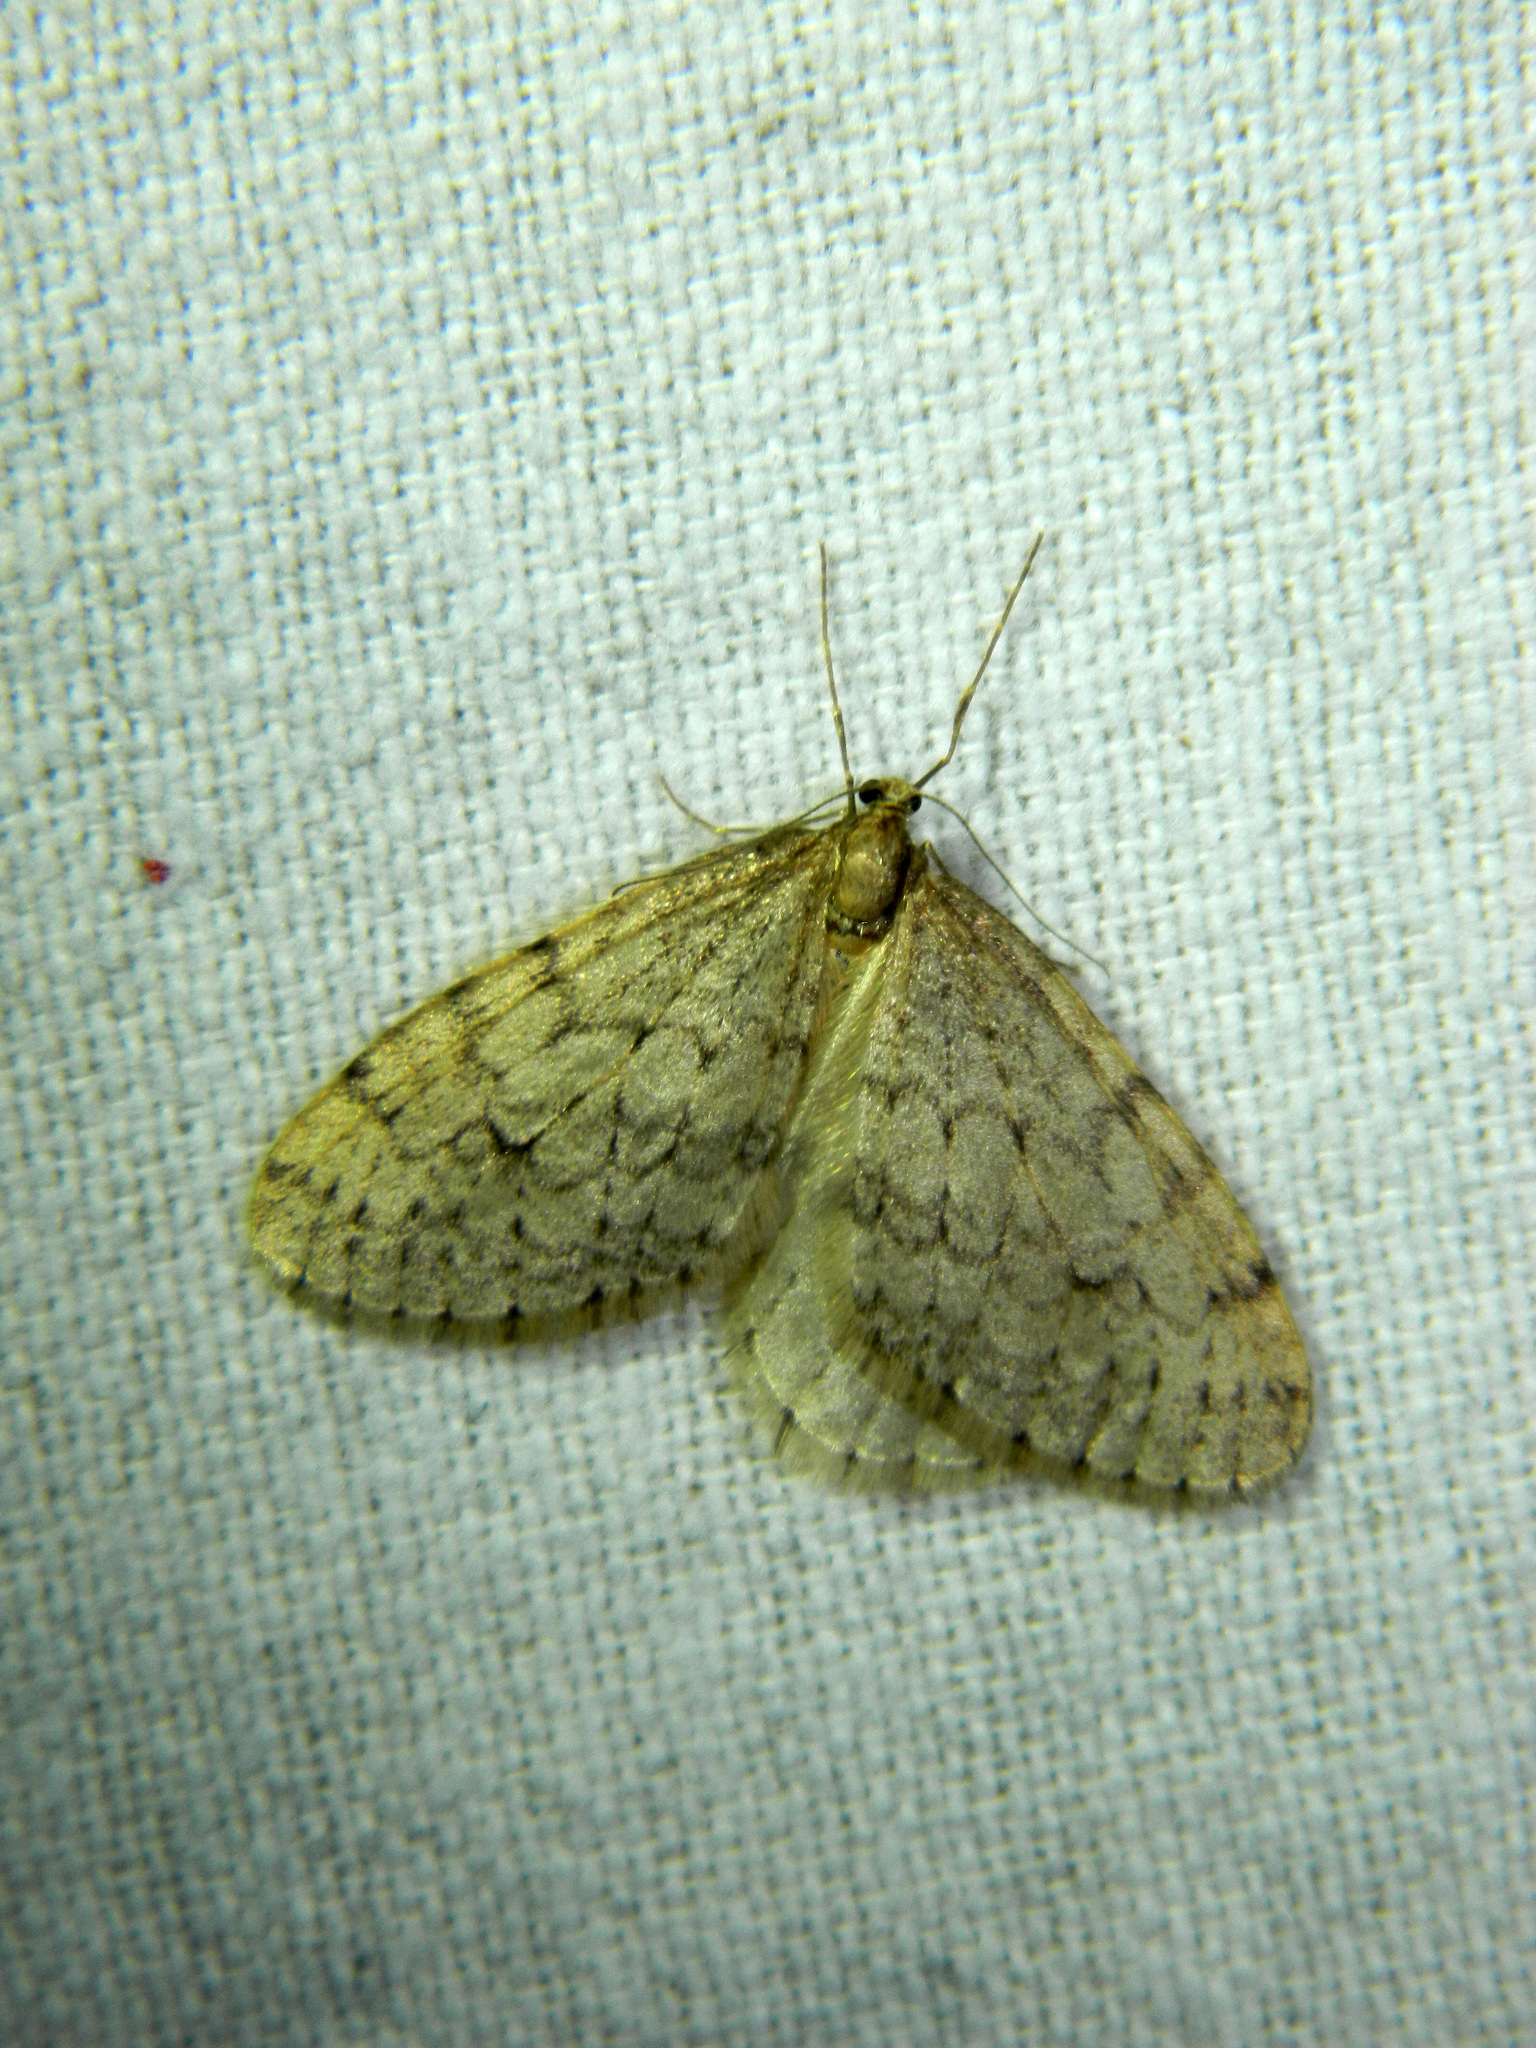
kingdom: Animalia
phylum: Arthropoda
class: Insecta
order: Lepidoptera
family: Geometridae
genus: Operophtera
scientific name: Operophtera bruceata
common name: Bruce spanworm
